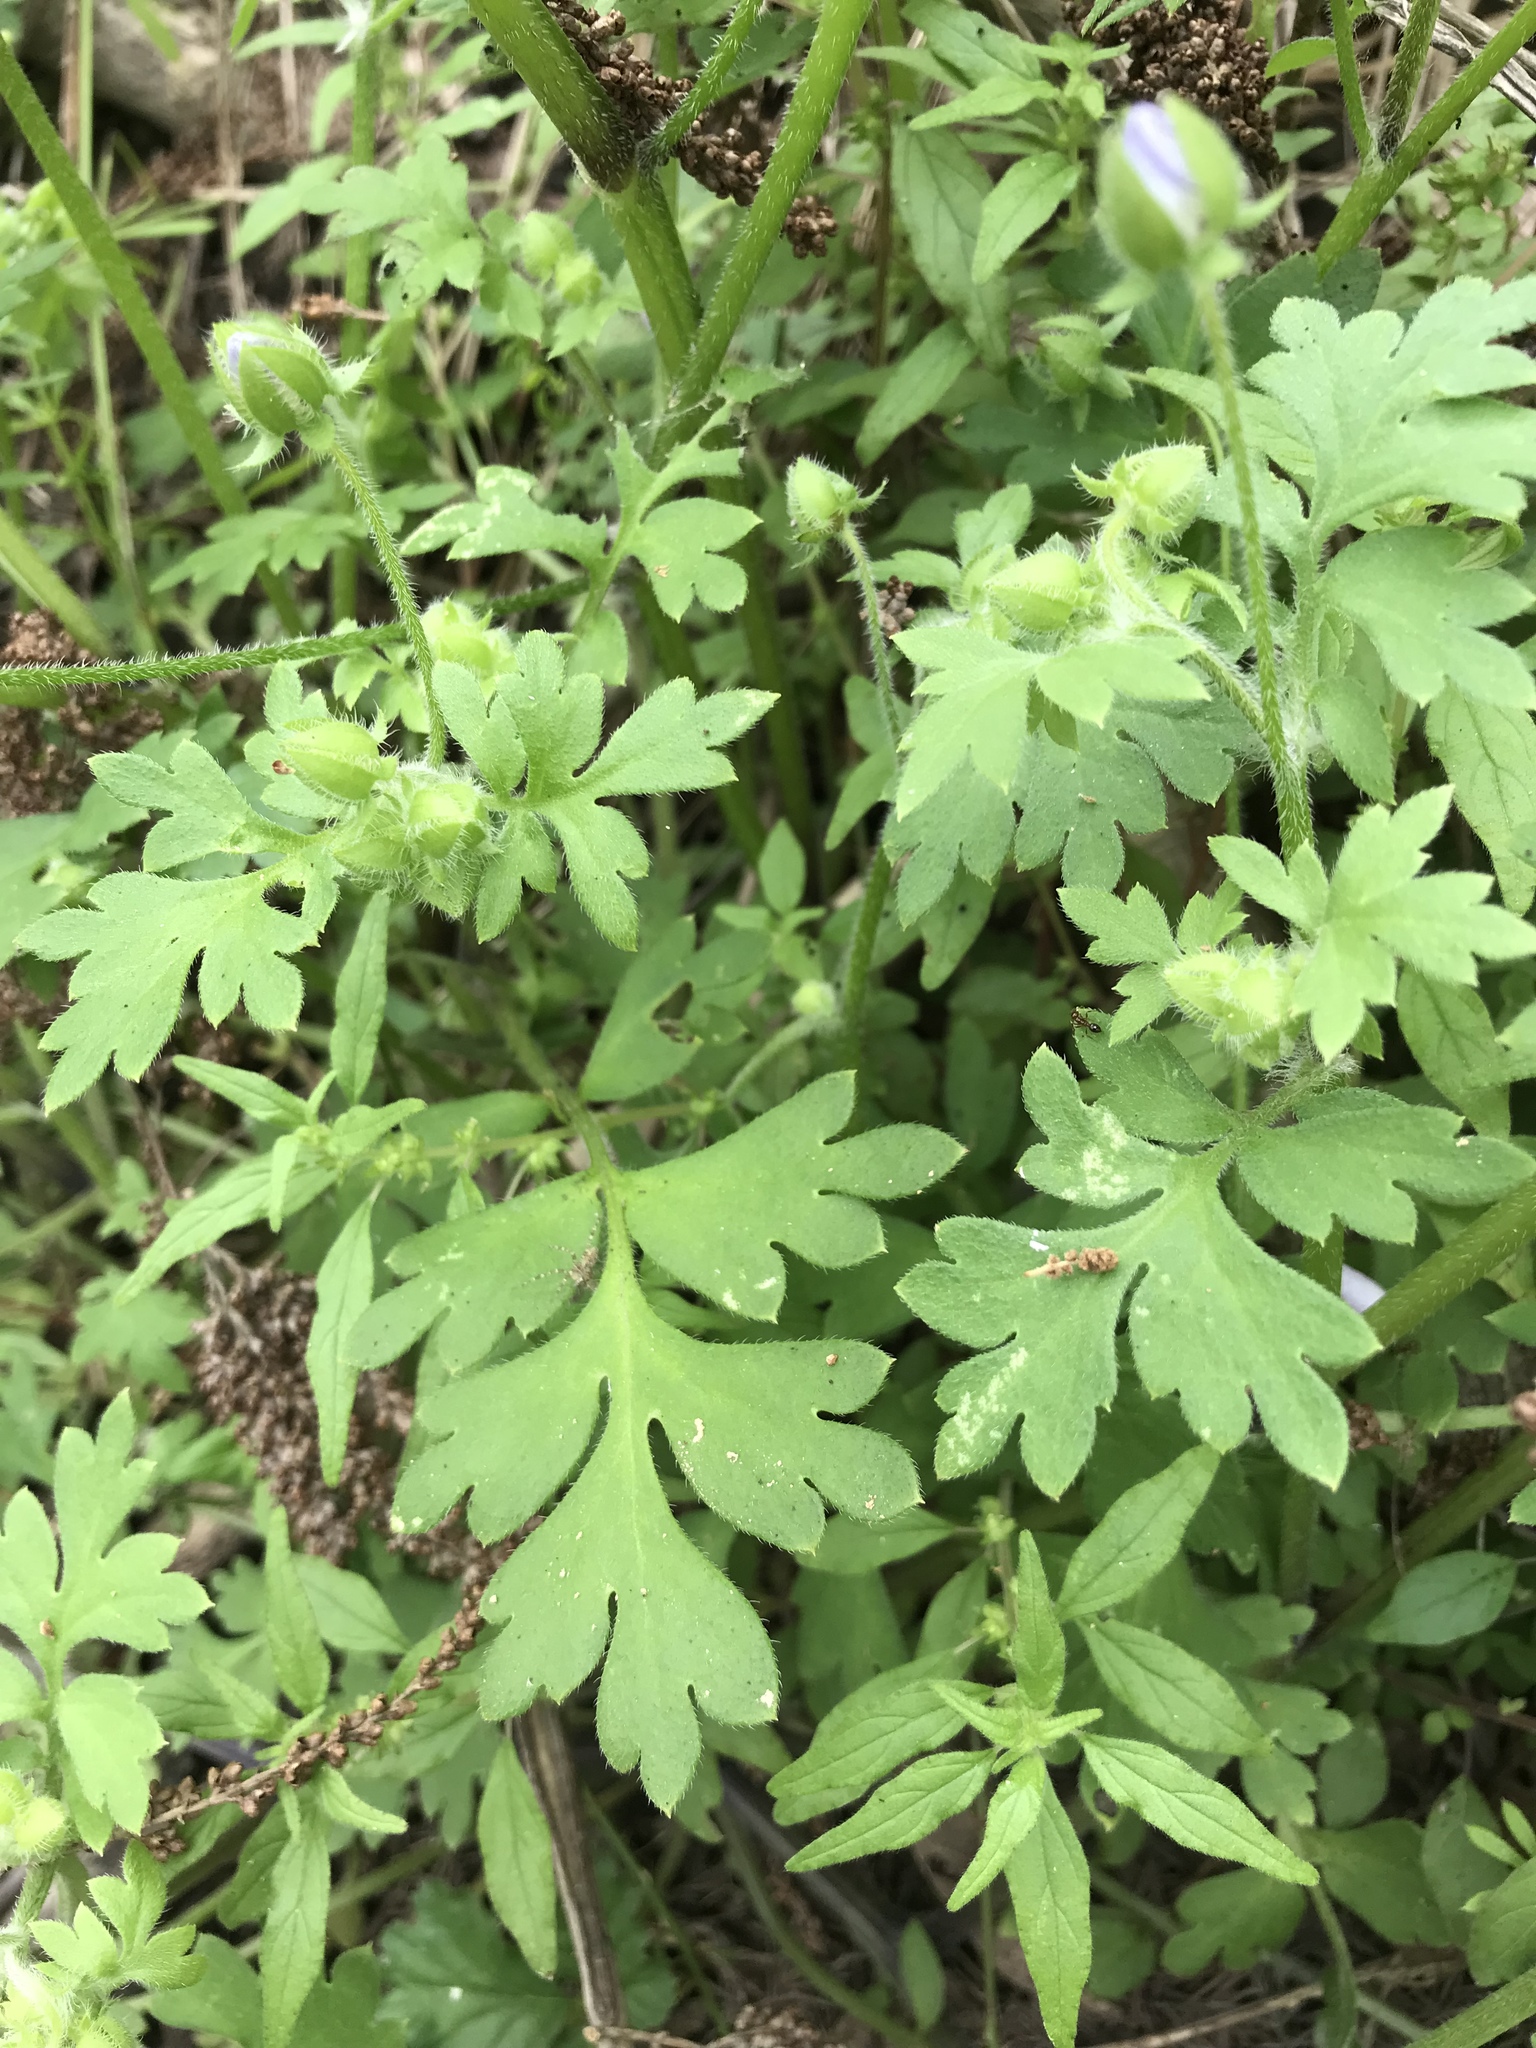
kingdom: Plantae
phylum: Tracheophyta
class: Magnoliopsida
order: Boraginales
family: Hydrophyllaceae
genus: Nemophila
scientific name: Nemophila phacelioides
